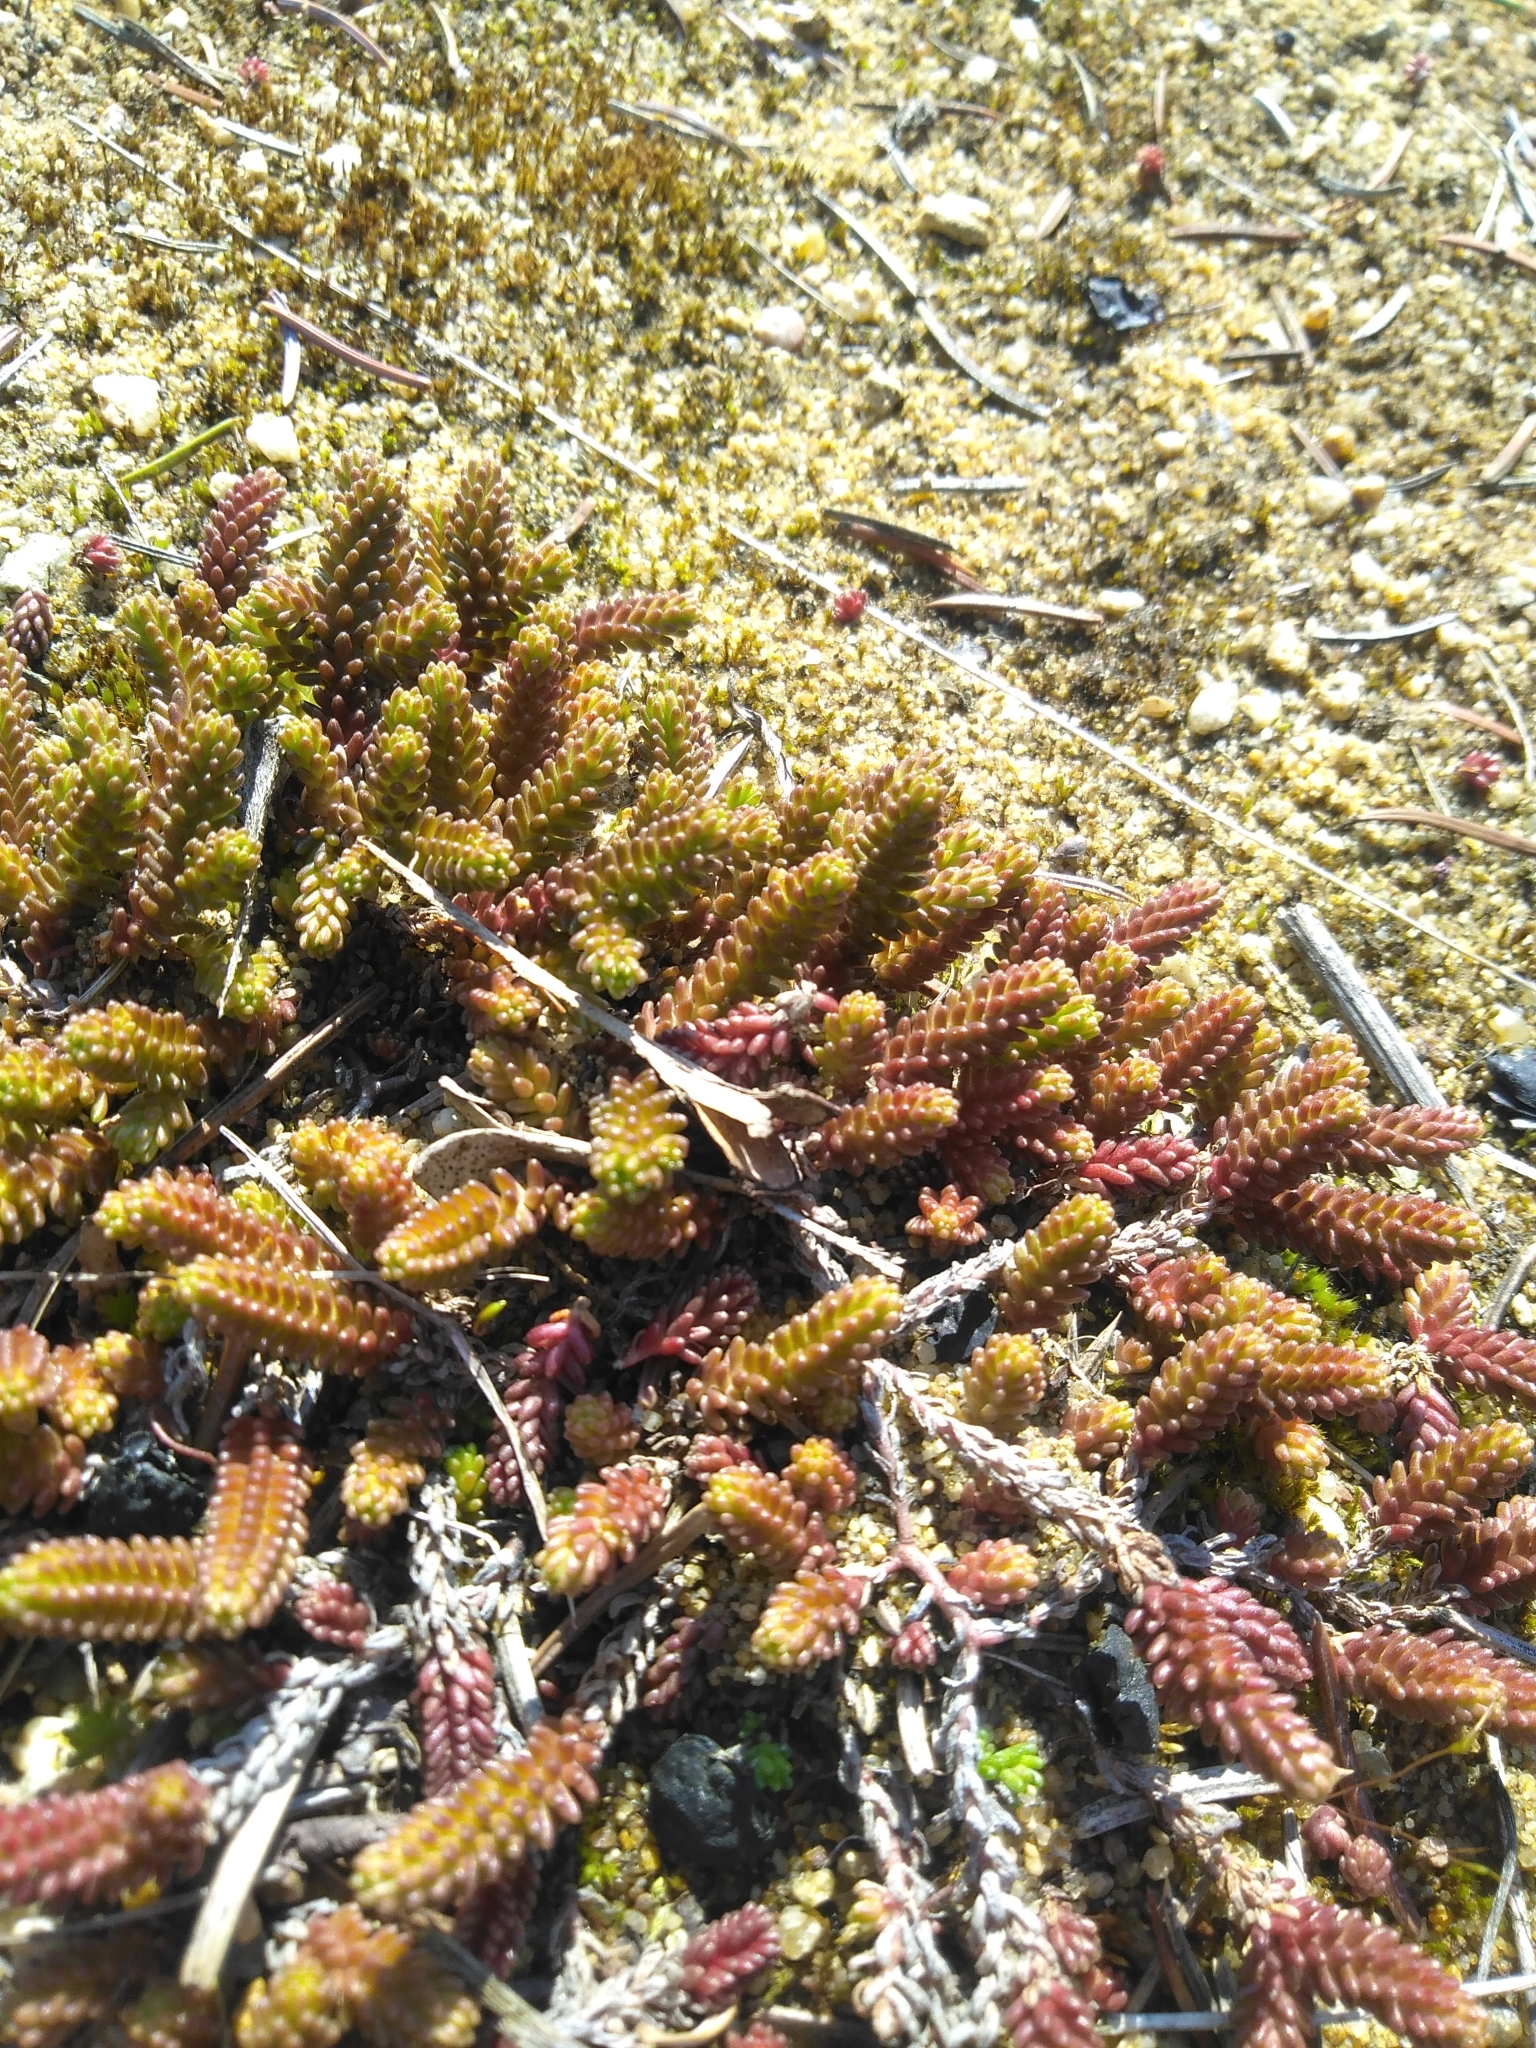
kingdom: Plantae
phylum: Tracheophyta
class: Magnoliopsida
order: Saxifragales
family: Crassulaceae
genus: Sedum
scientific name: Sedum sexangulare
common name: Tasteless stonecrop
